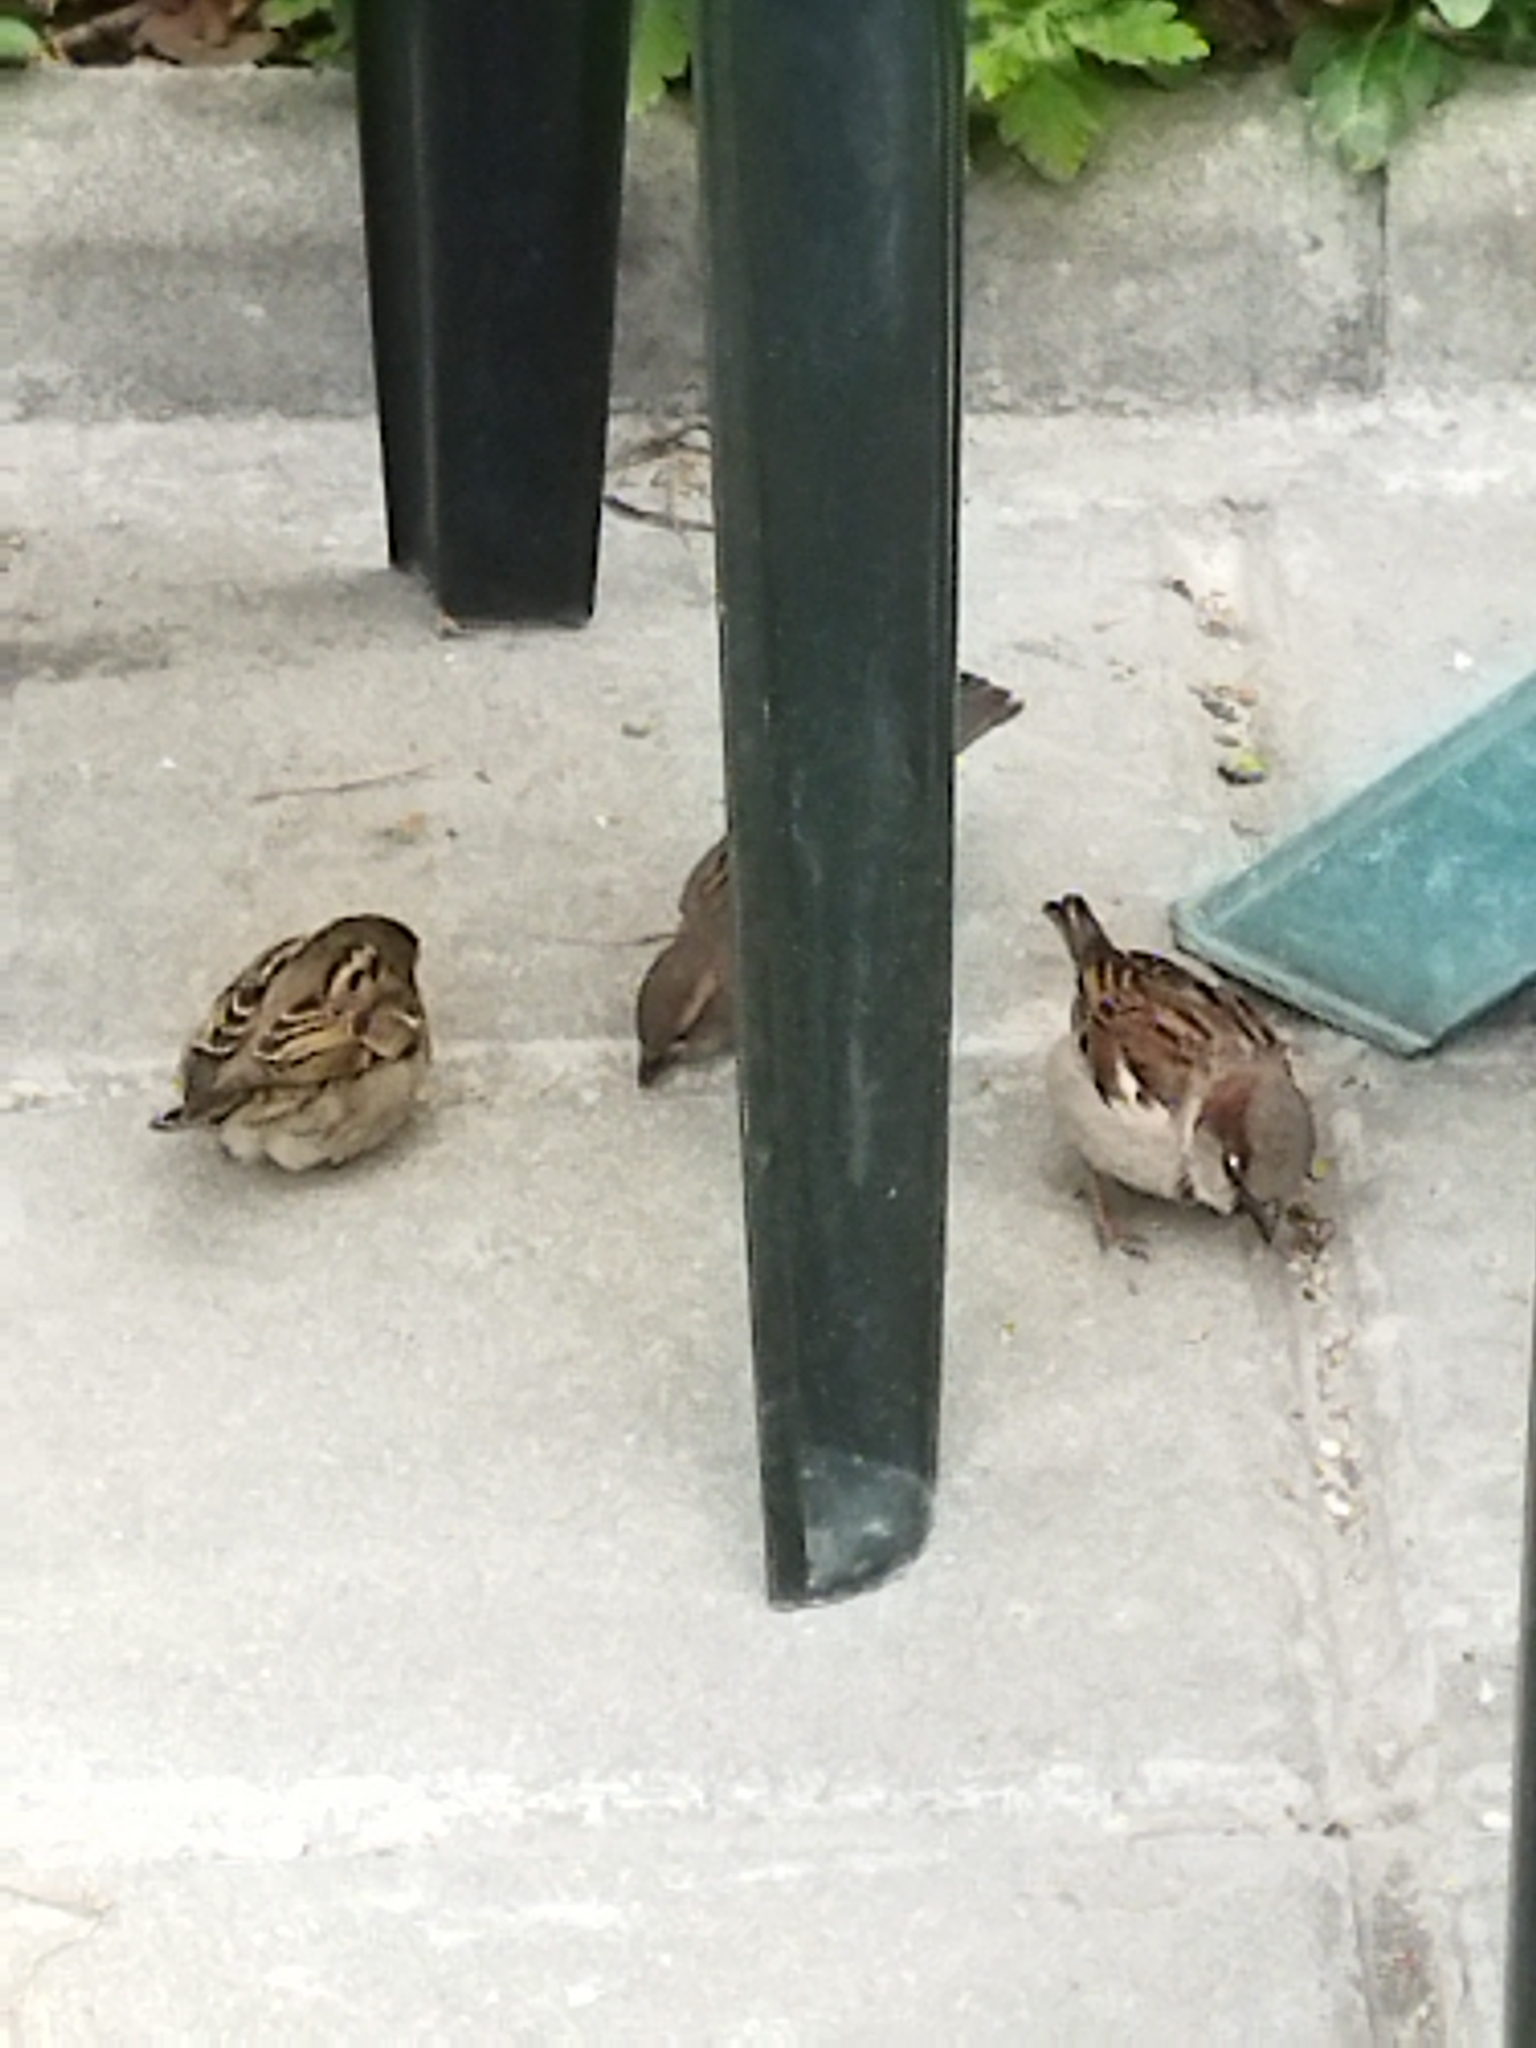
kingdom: Animalia
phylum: Chordata
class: Aves
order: Passeriformes
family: Passeridae
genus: Passer
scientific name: Passer domesticus
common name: House sparrow
